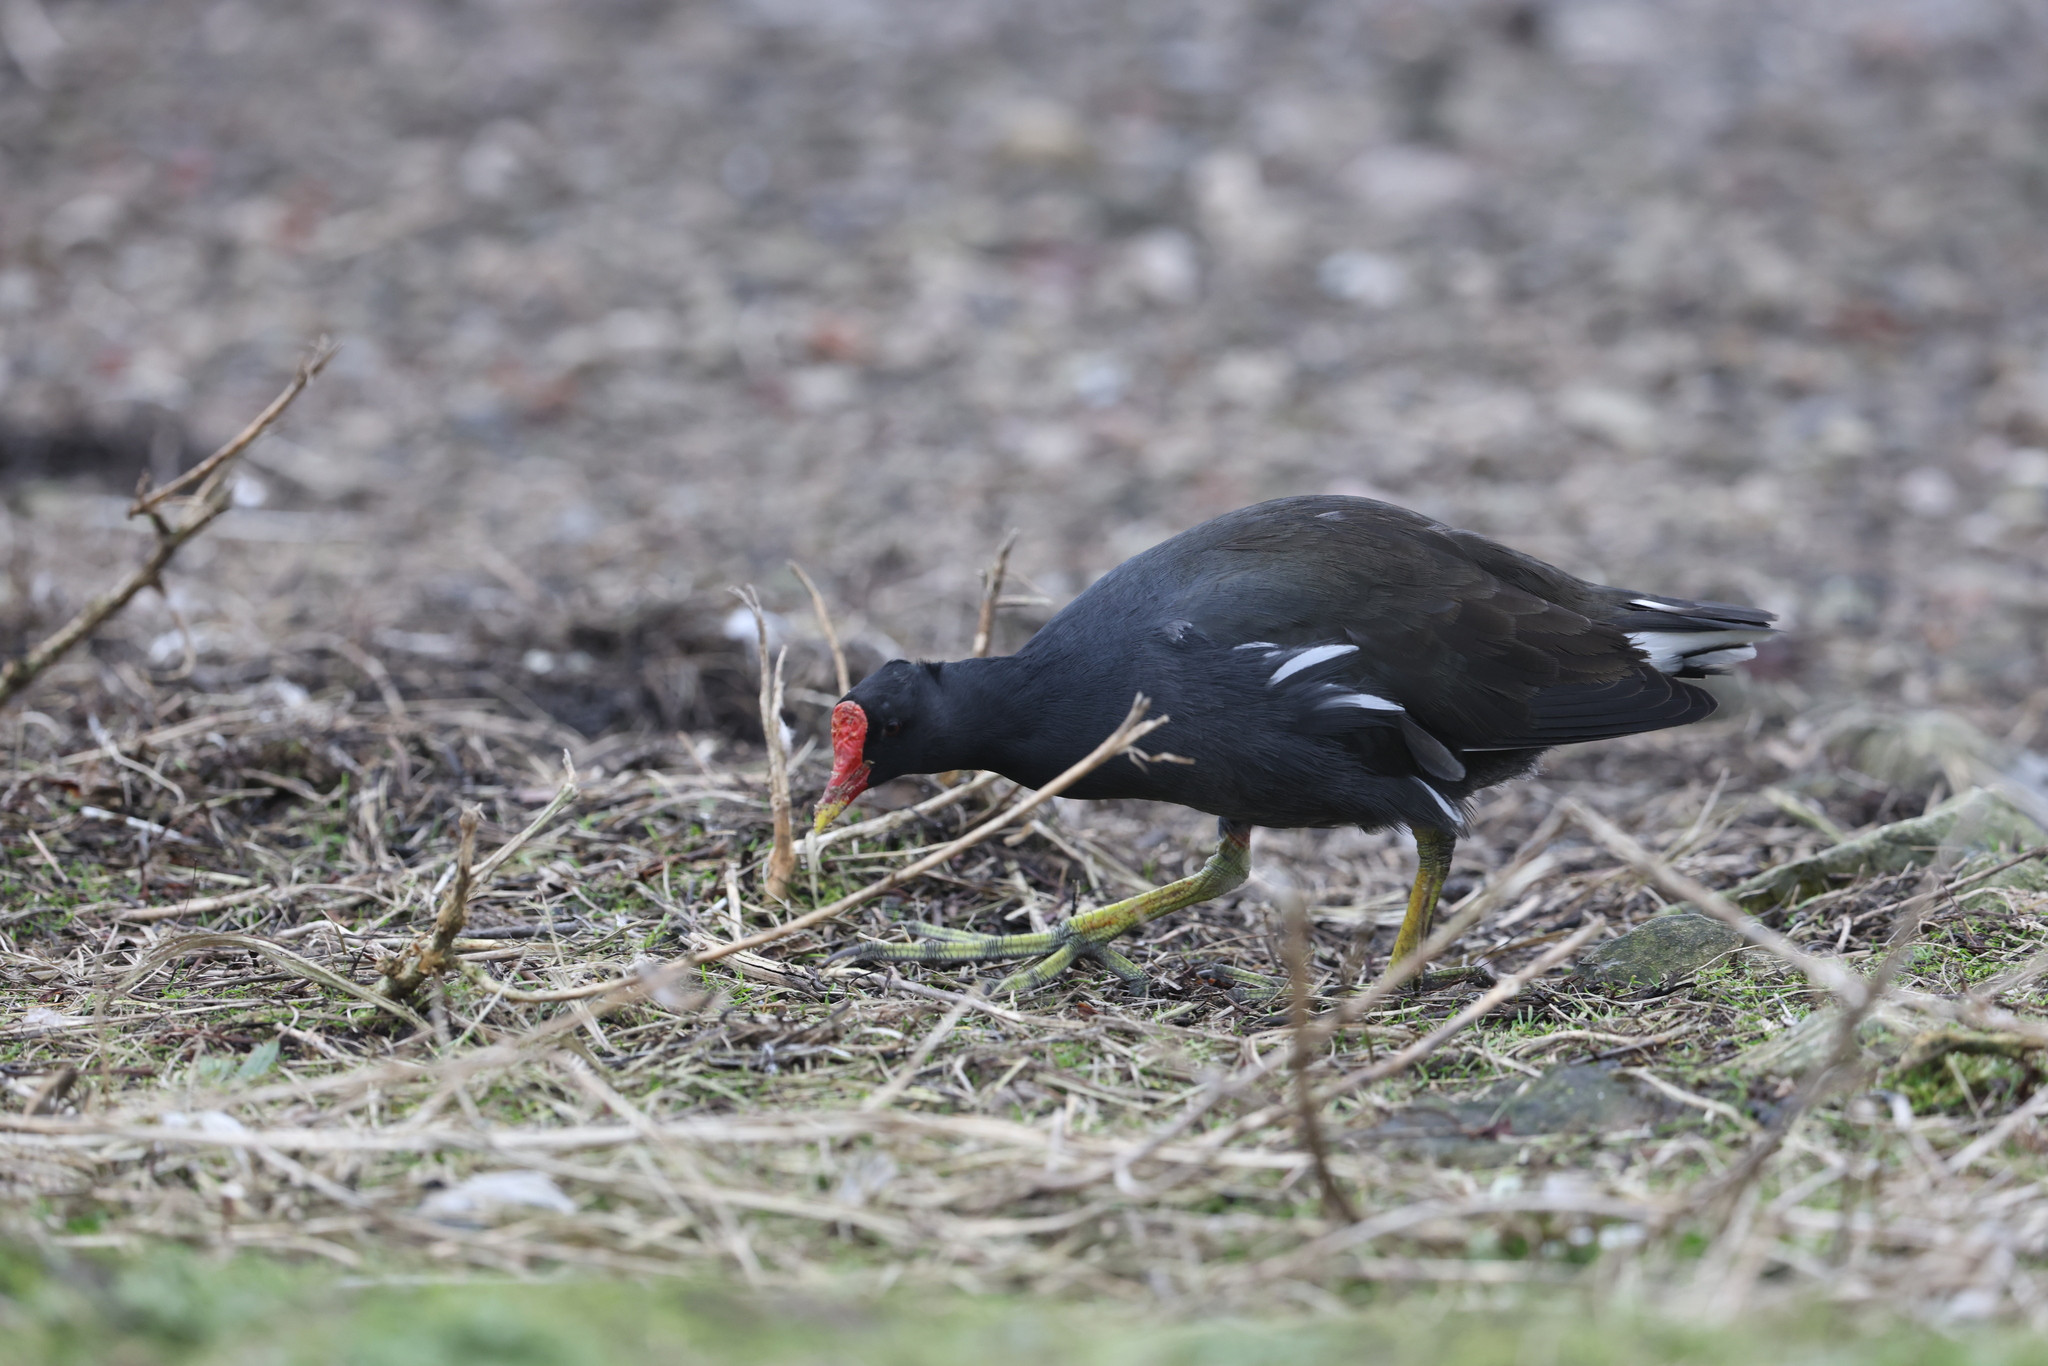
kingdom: Animalia
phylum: Chordata
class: Aves
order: Gruiformes
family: Rallidae
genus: Gallinula
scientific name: Gallinula chloropus
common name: Common moorhen
